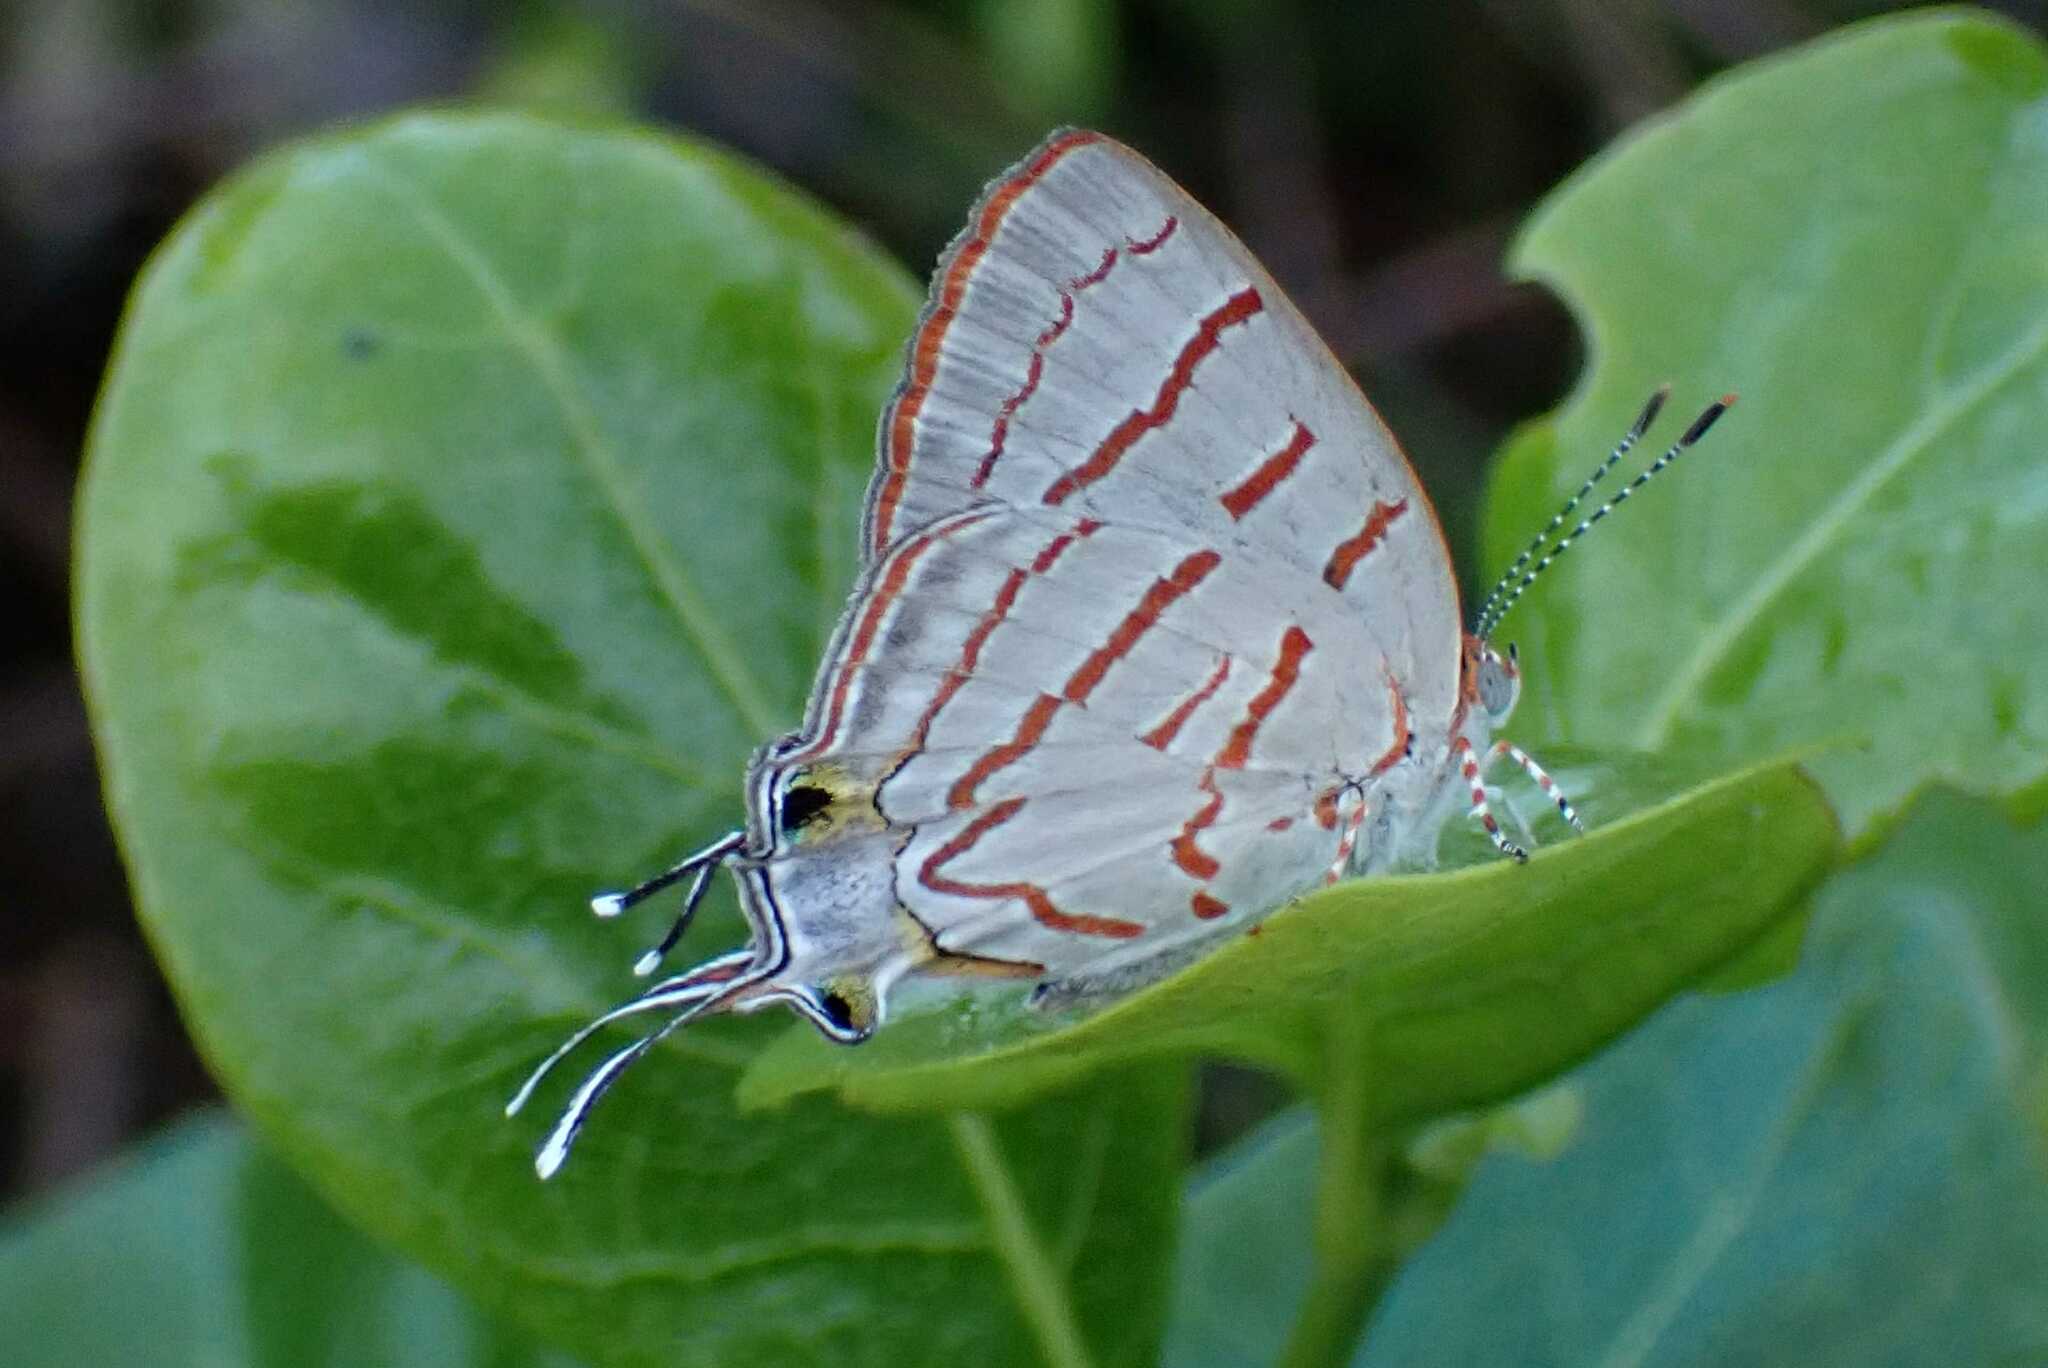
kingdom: Animalia
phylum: Arthropoda
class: Insecta
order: Lepidoptera
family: Lycaenidae
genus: Hemiolaus
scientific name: Hemiolaus caeculus
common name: Azure hairstreak
